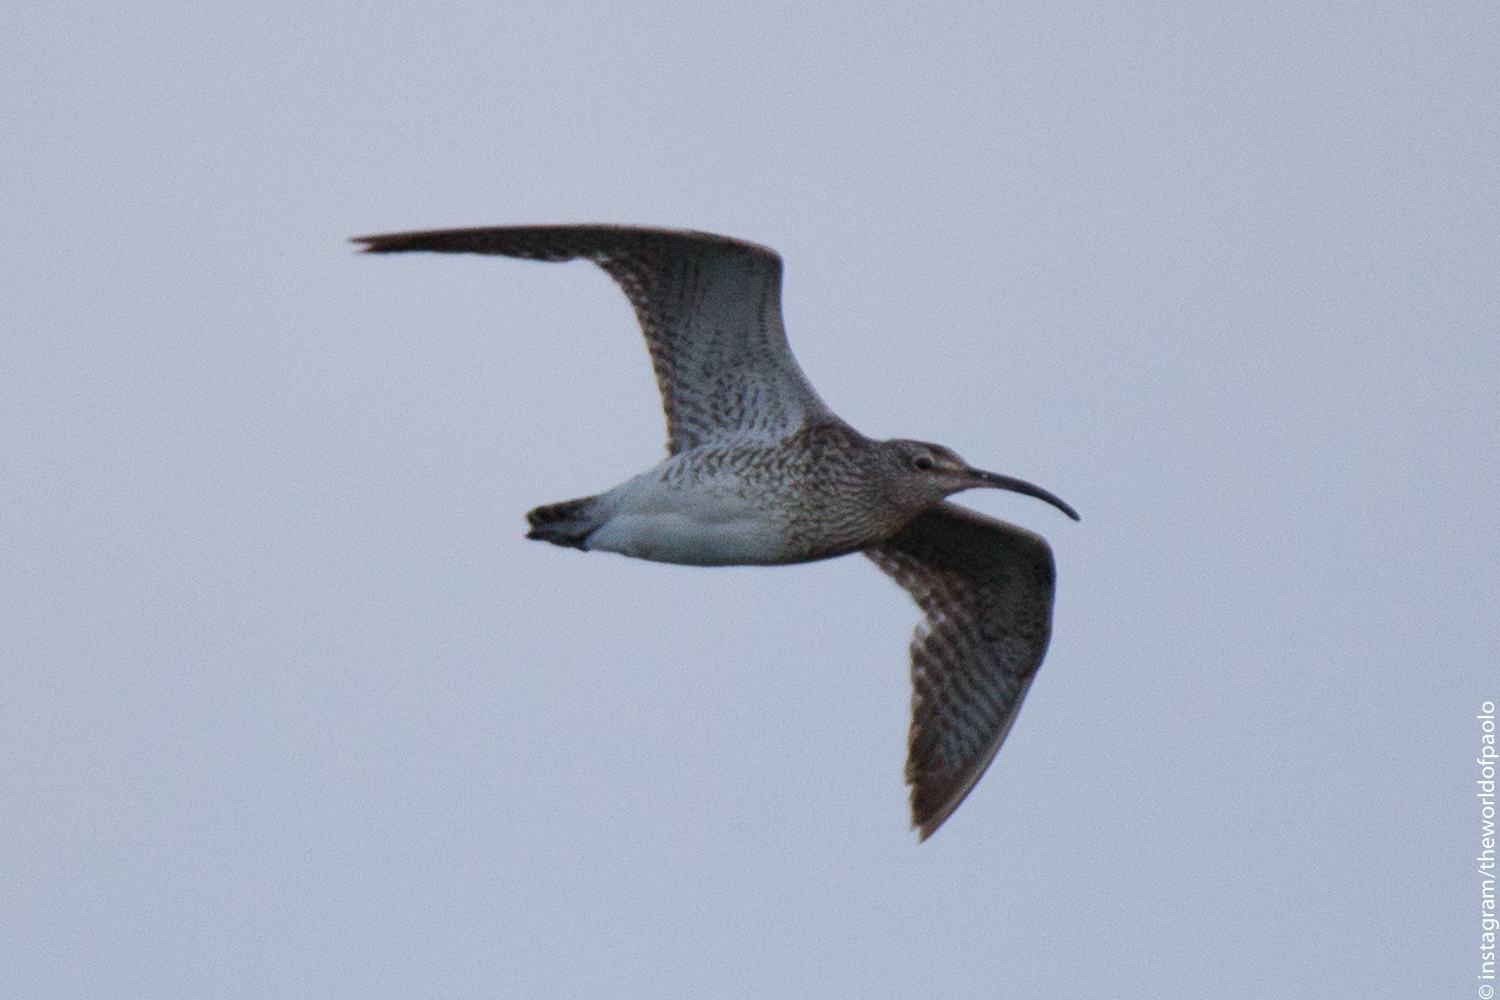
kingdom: Animalia
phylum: Chordata
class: Aves
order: Charadriiformes
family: Scolopacidae
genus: Numenius
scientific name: Numenius phaeopus
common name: Whimbrel
